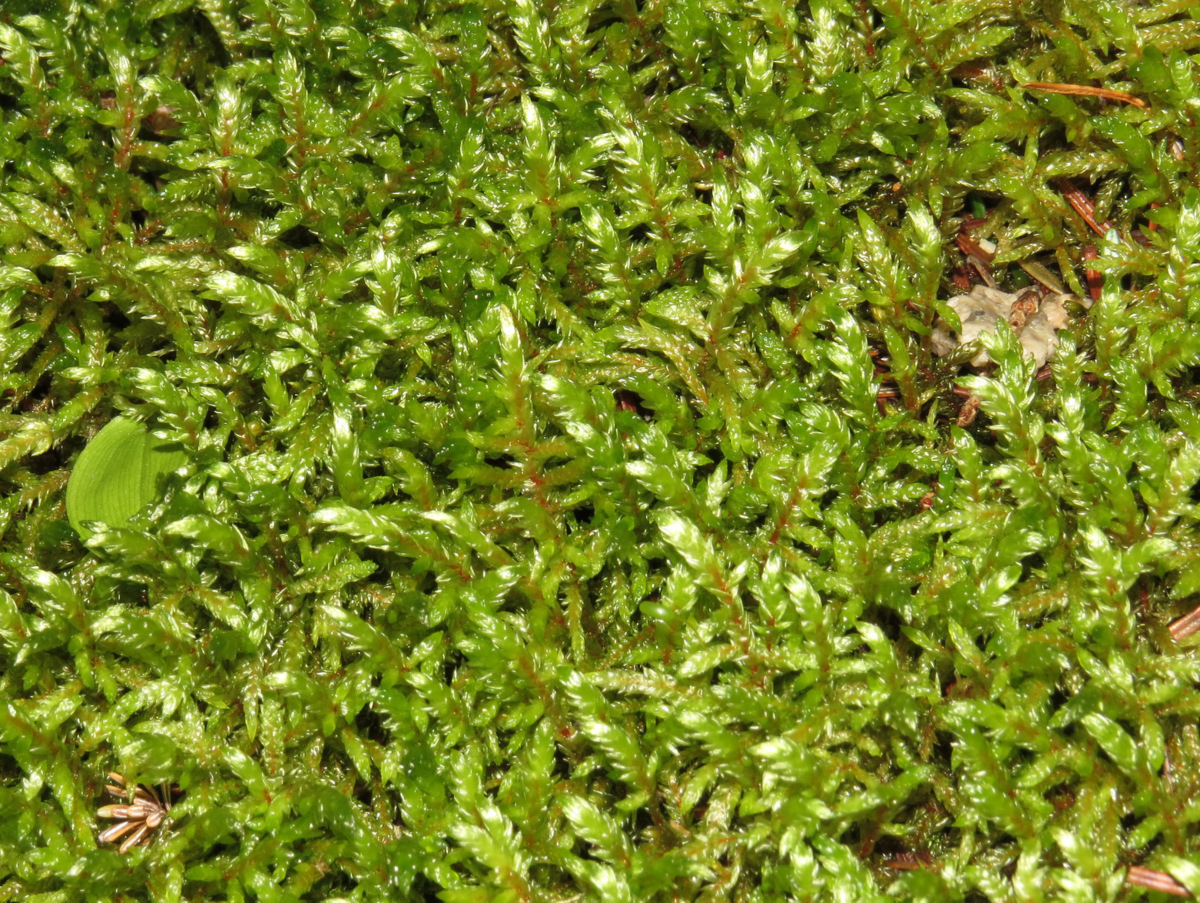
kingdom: Plantae
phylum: Bryophyta
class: Bryopsida
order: Hypnales
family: Hylocomiaceae
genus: Pleurozium
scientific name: Pleurozium schreberi
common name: Red-stemmed feather moss
